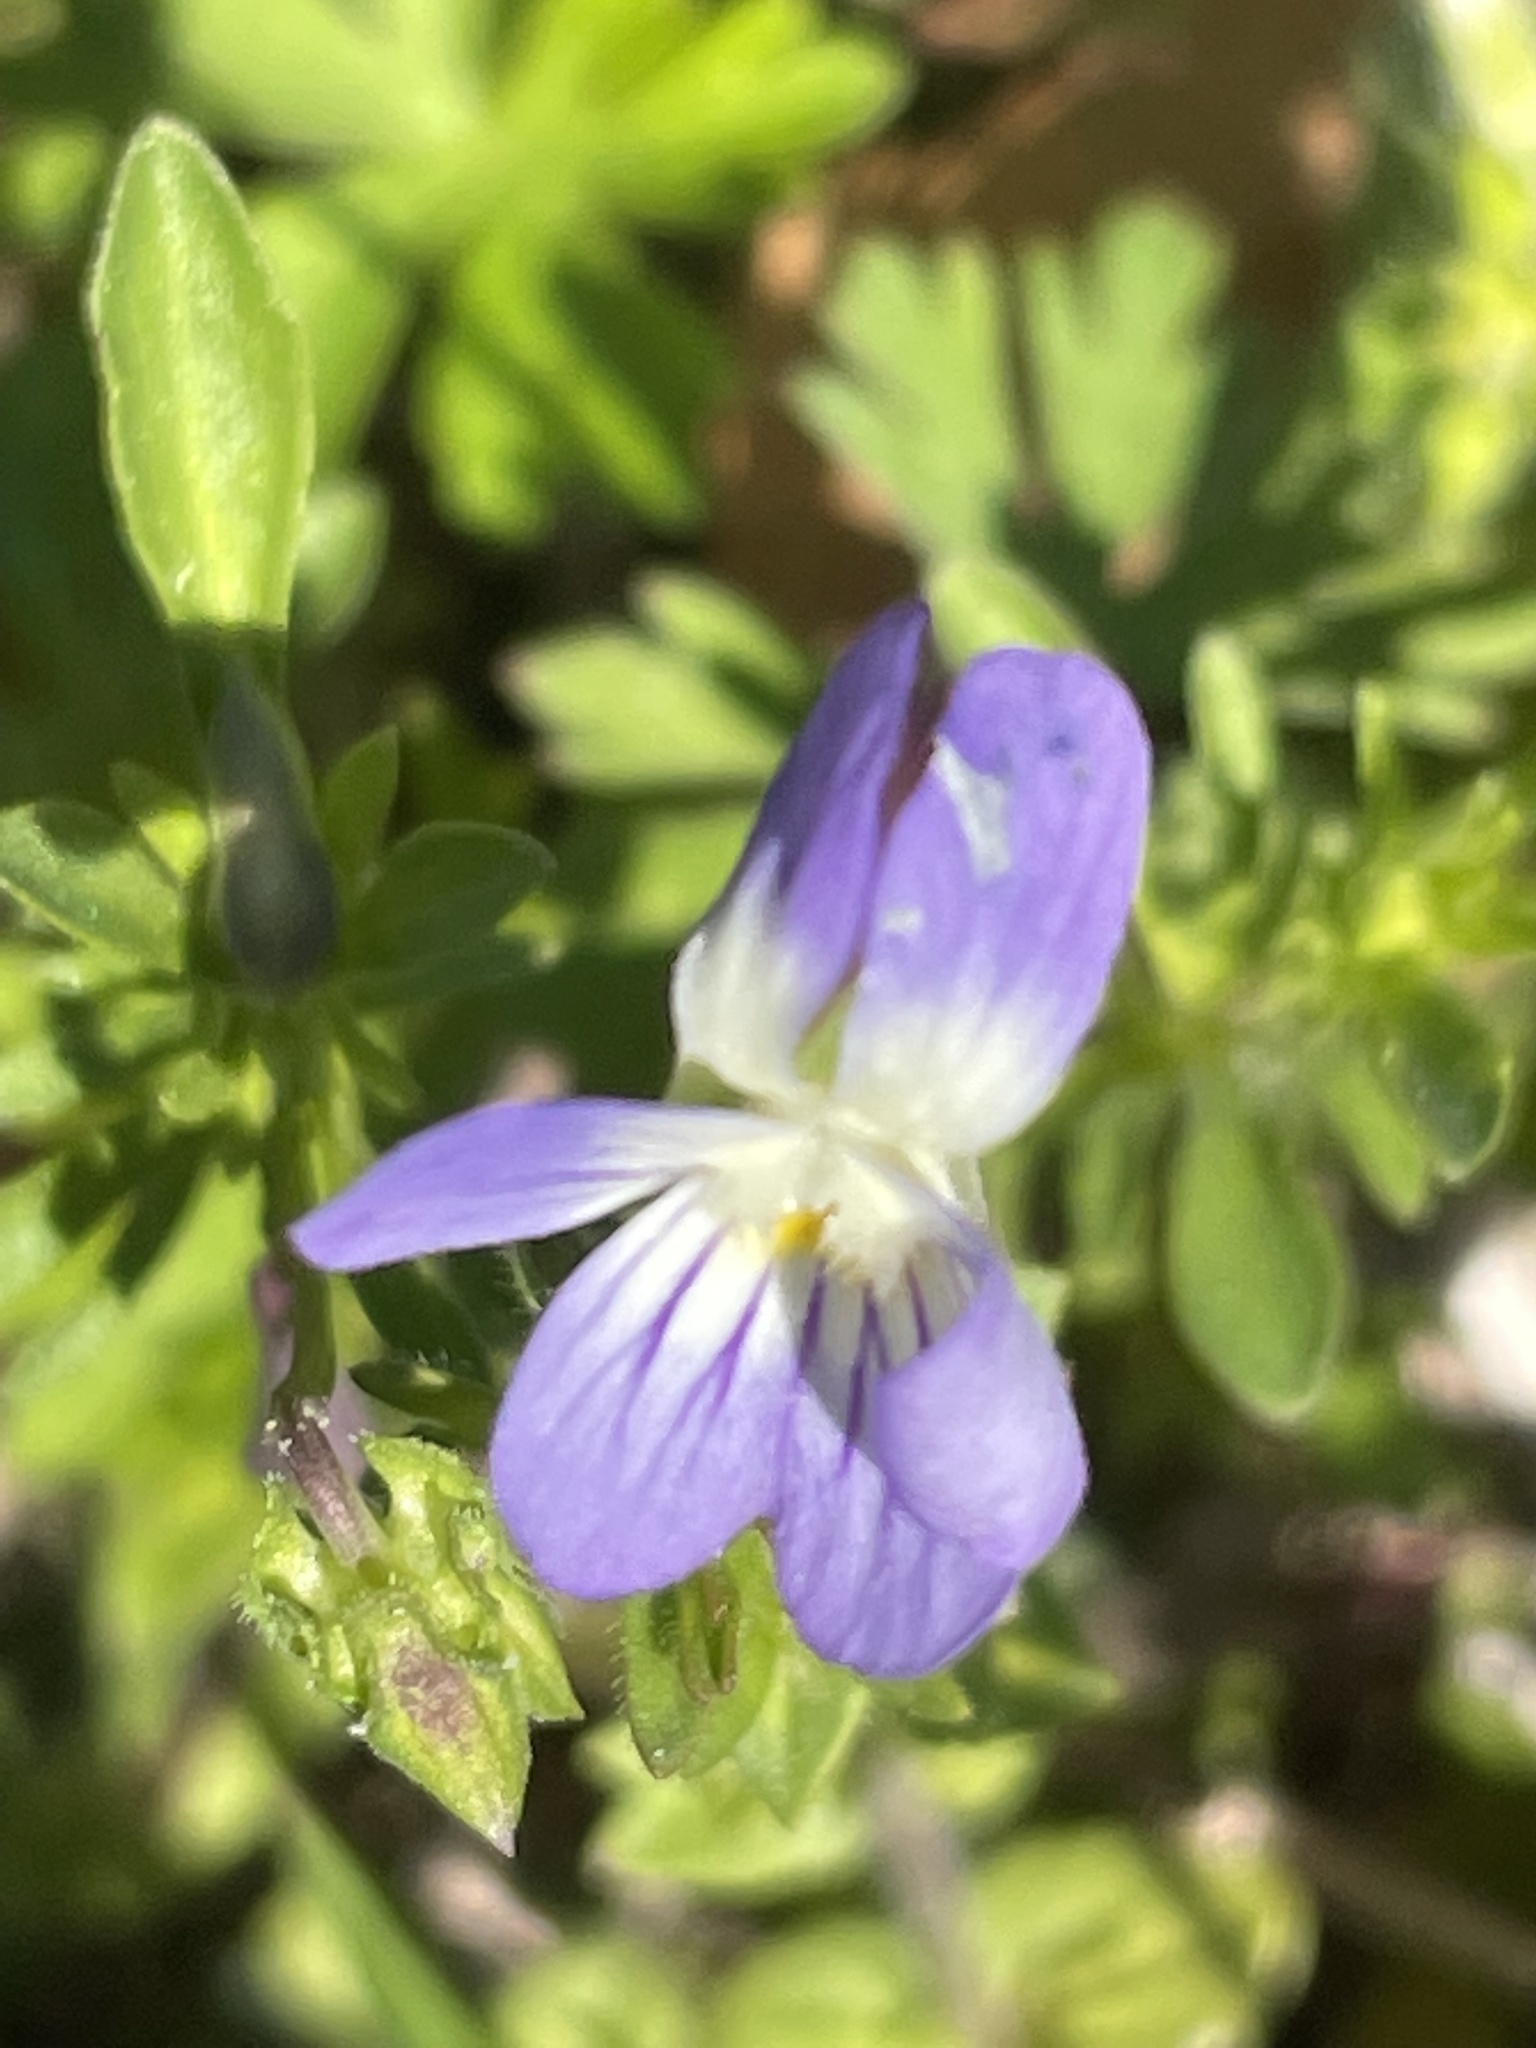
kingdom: Plantae
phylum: Tracheophyta
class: Magnoliopsida
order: Malpighiales
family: Violaceae
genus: Viola
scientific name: Viola rafinesquei
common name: American field pansy
